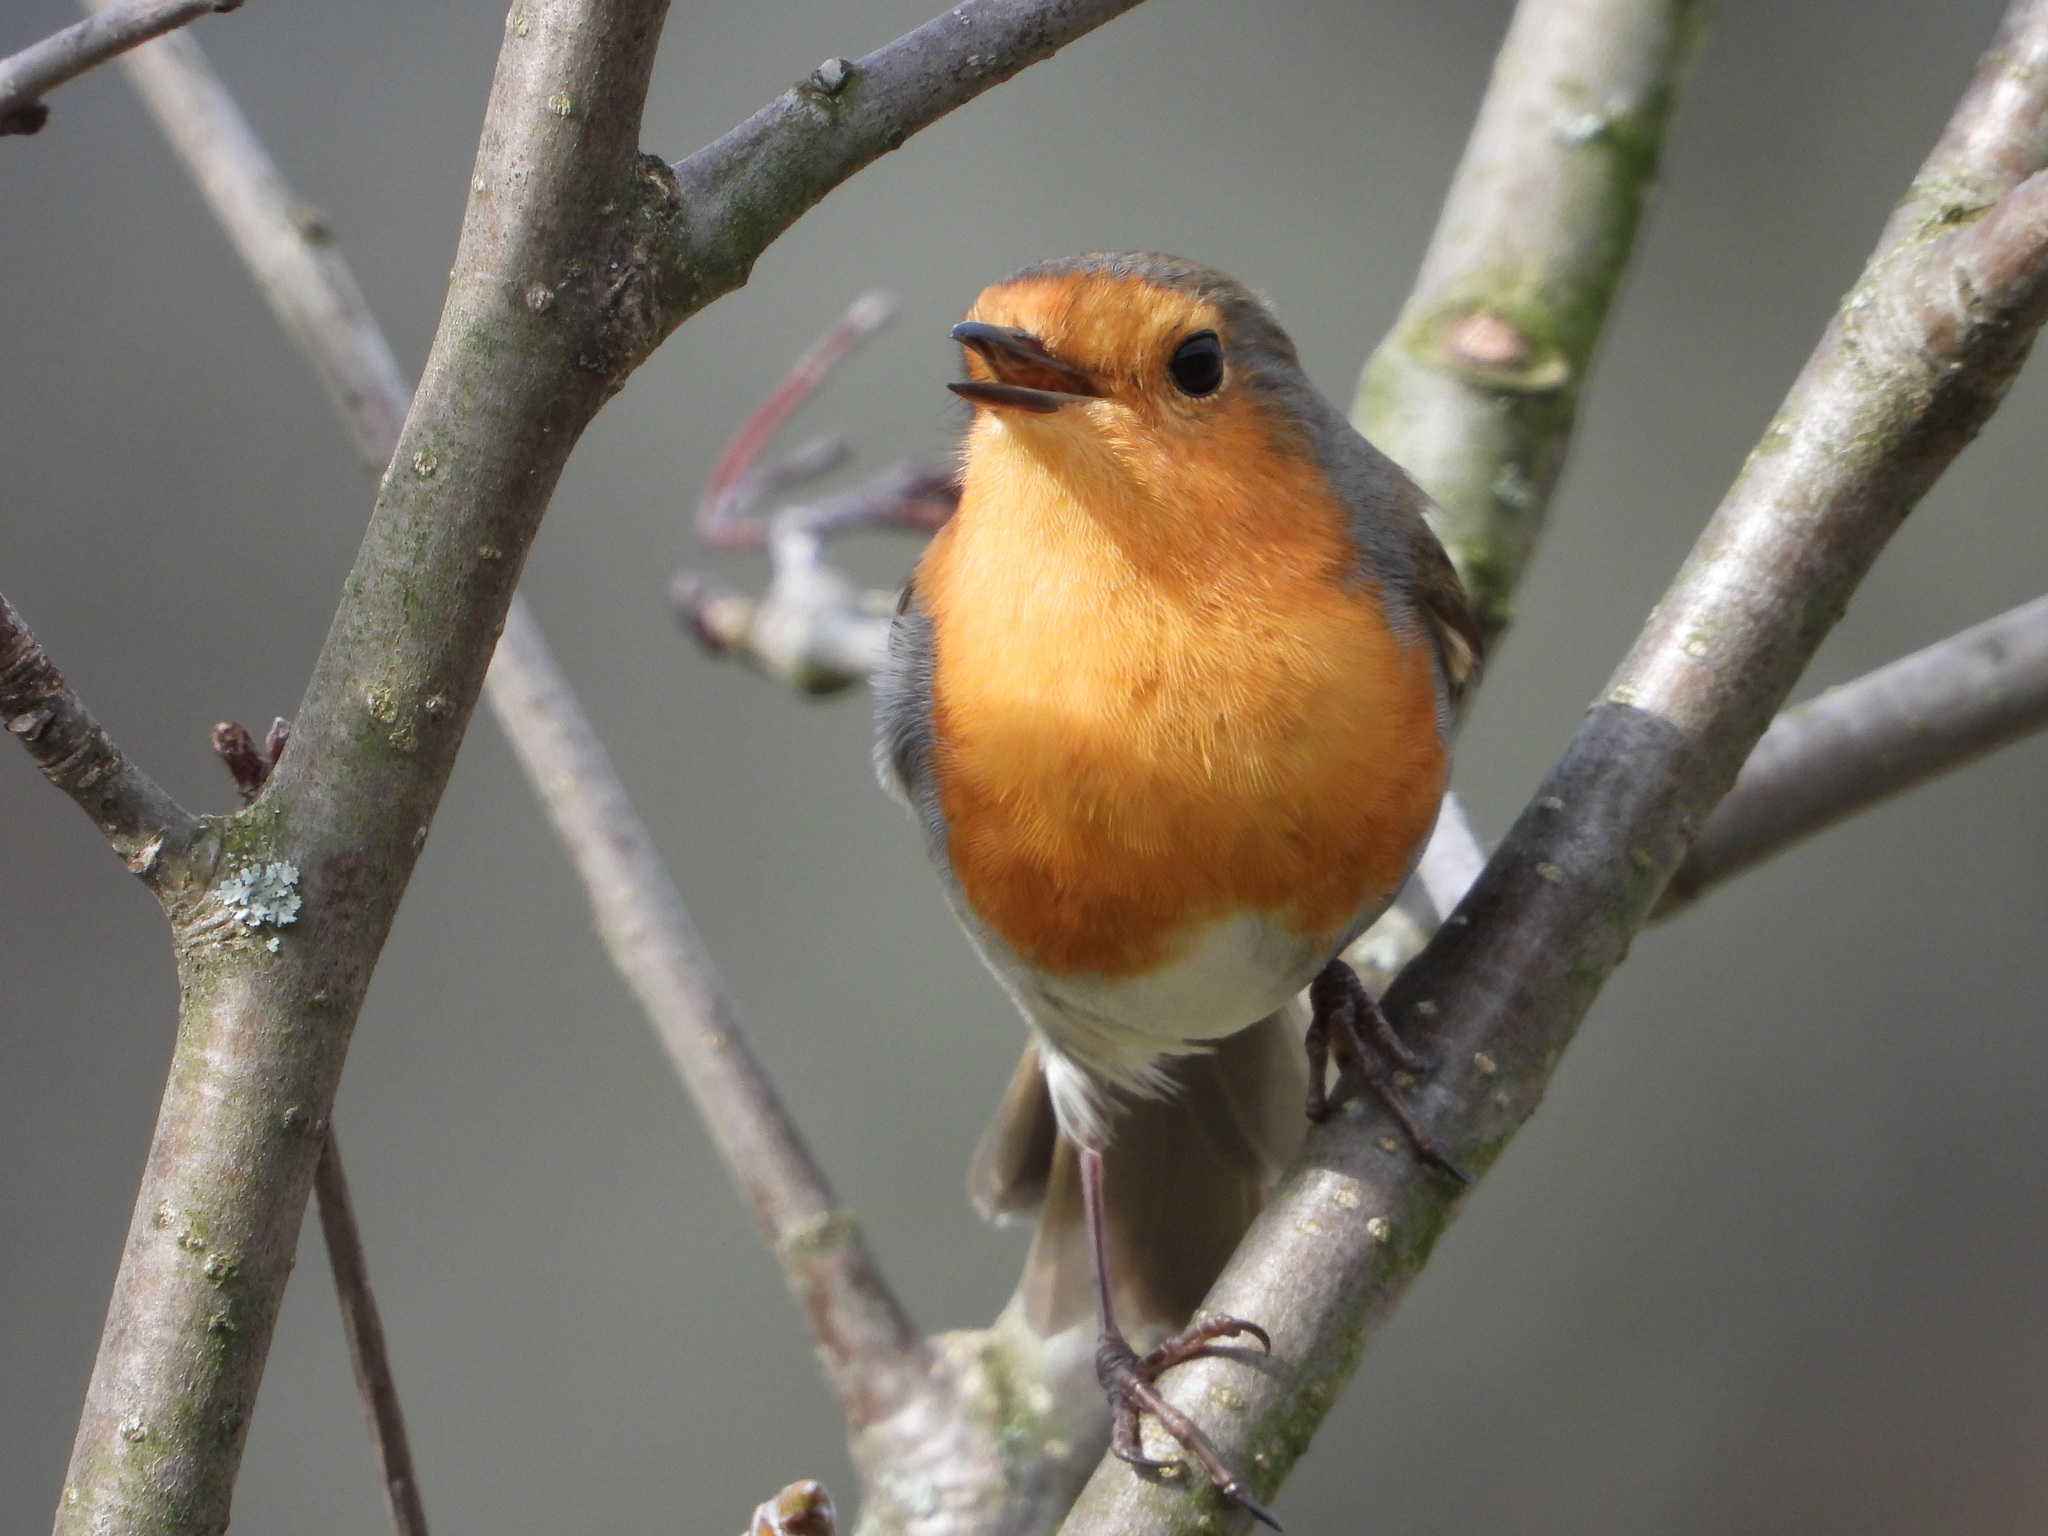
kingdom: Animalia
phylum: Chordata
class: Aves
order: Passeriformes
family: Muscicapidae
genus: Erithacus
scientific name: Erithacus rubecula
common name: European robin
